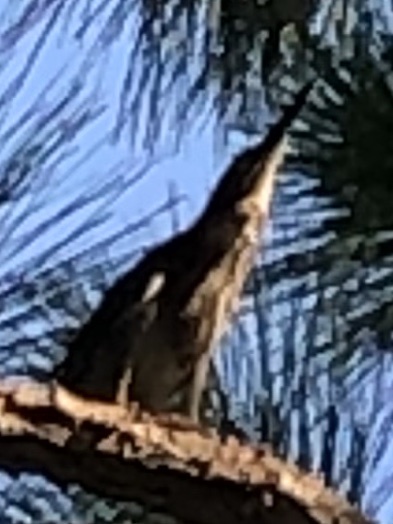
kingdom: Animalia
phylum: Chordata
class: Aves
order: Pelecaniformes
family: Ardeidae
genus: Ixobrychus
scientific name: Ixobrychus exilis
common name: Least bittern
